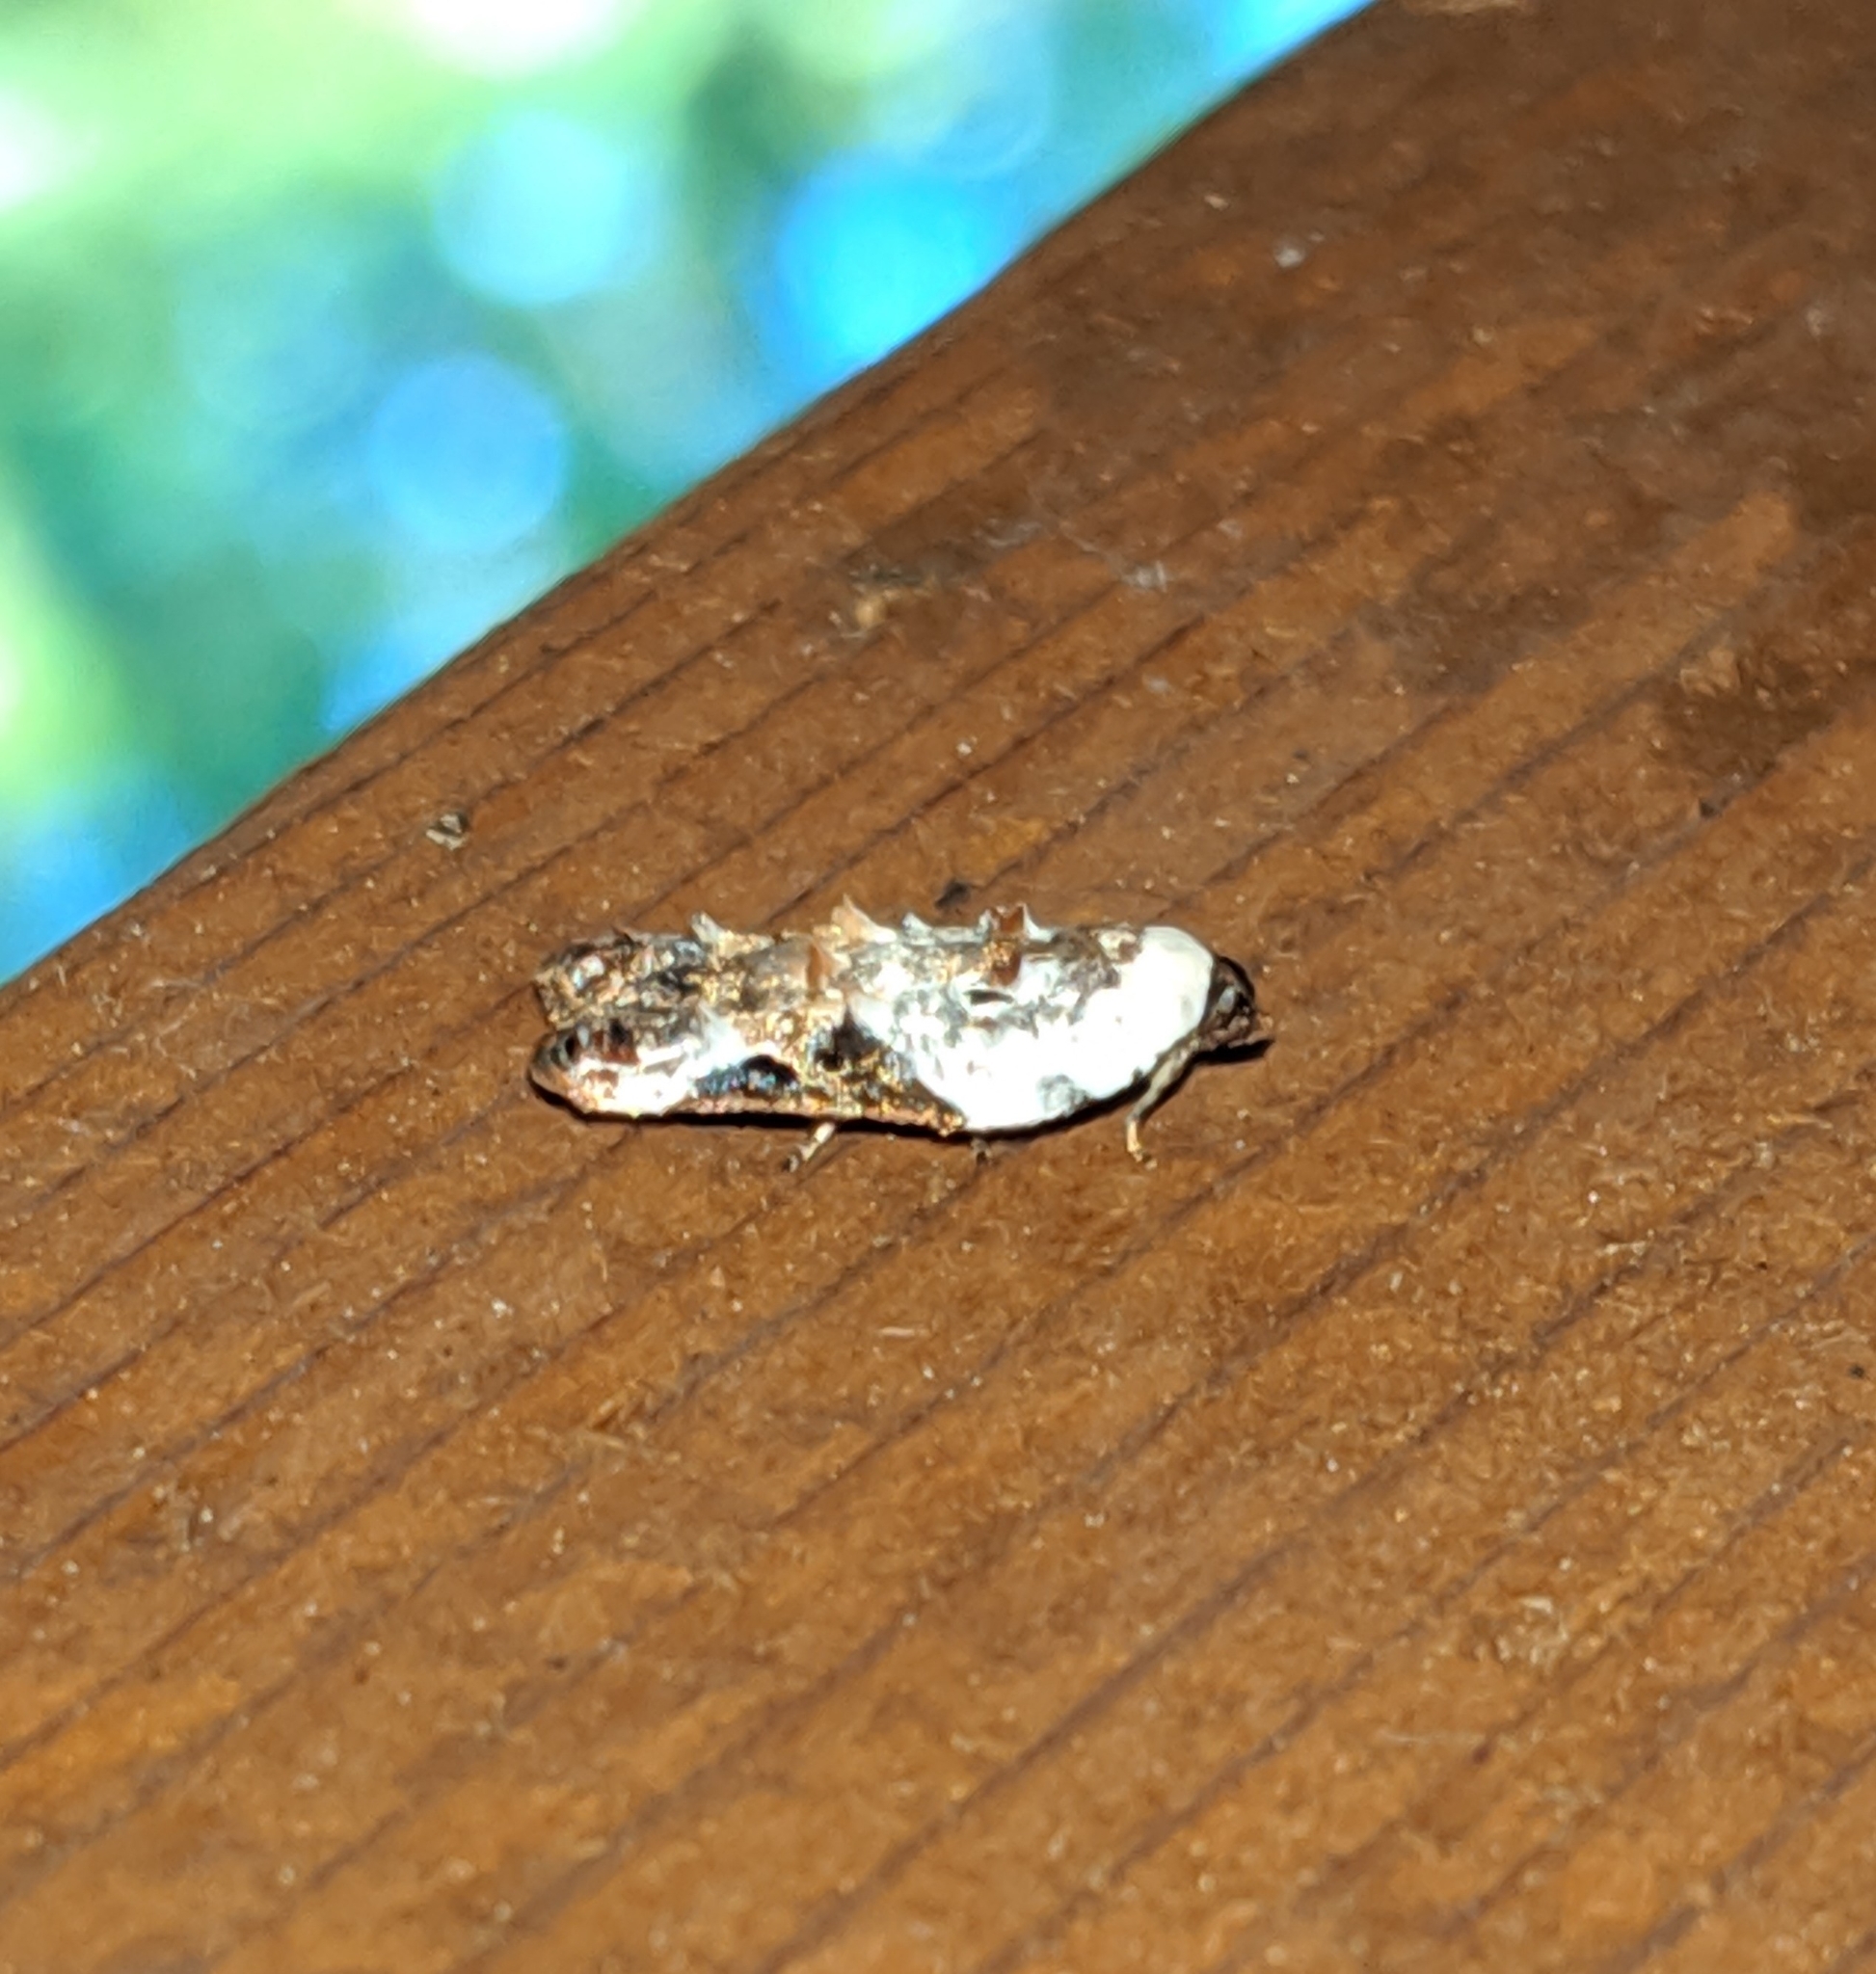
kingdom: Animalia
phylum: Arthropoda
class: Insecta
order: Lepidoptera
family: Tortricidae
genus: Acleris
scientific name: Acleris nivisellana
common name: Snowy-shouldered acleris moth
